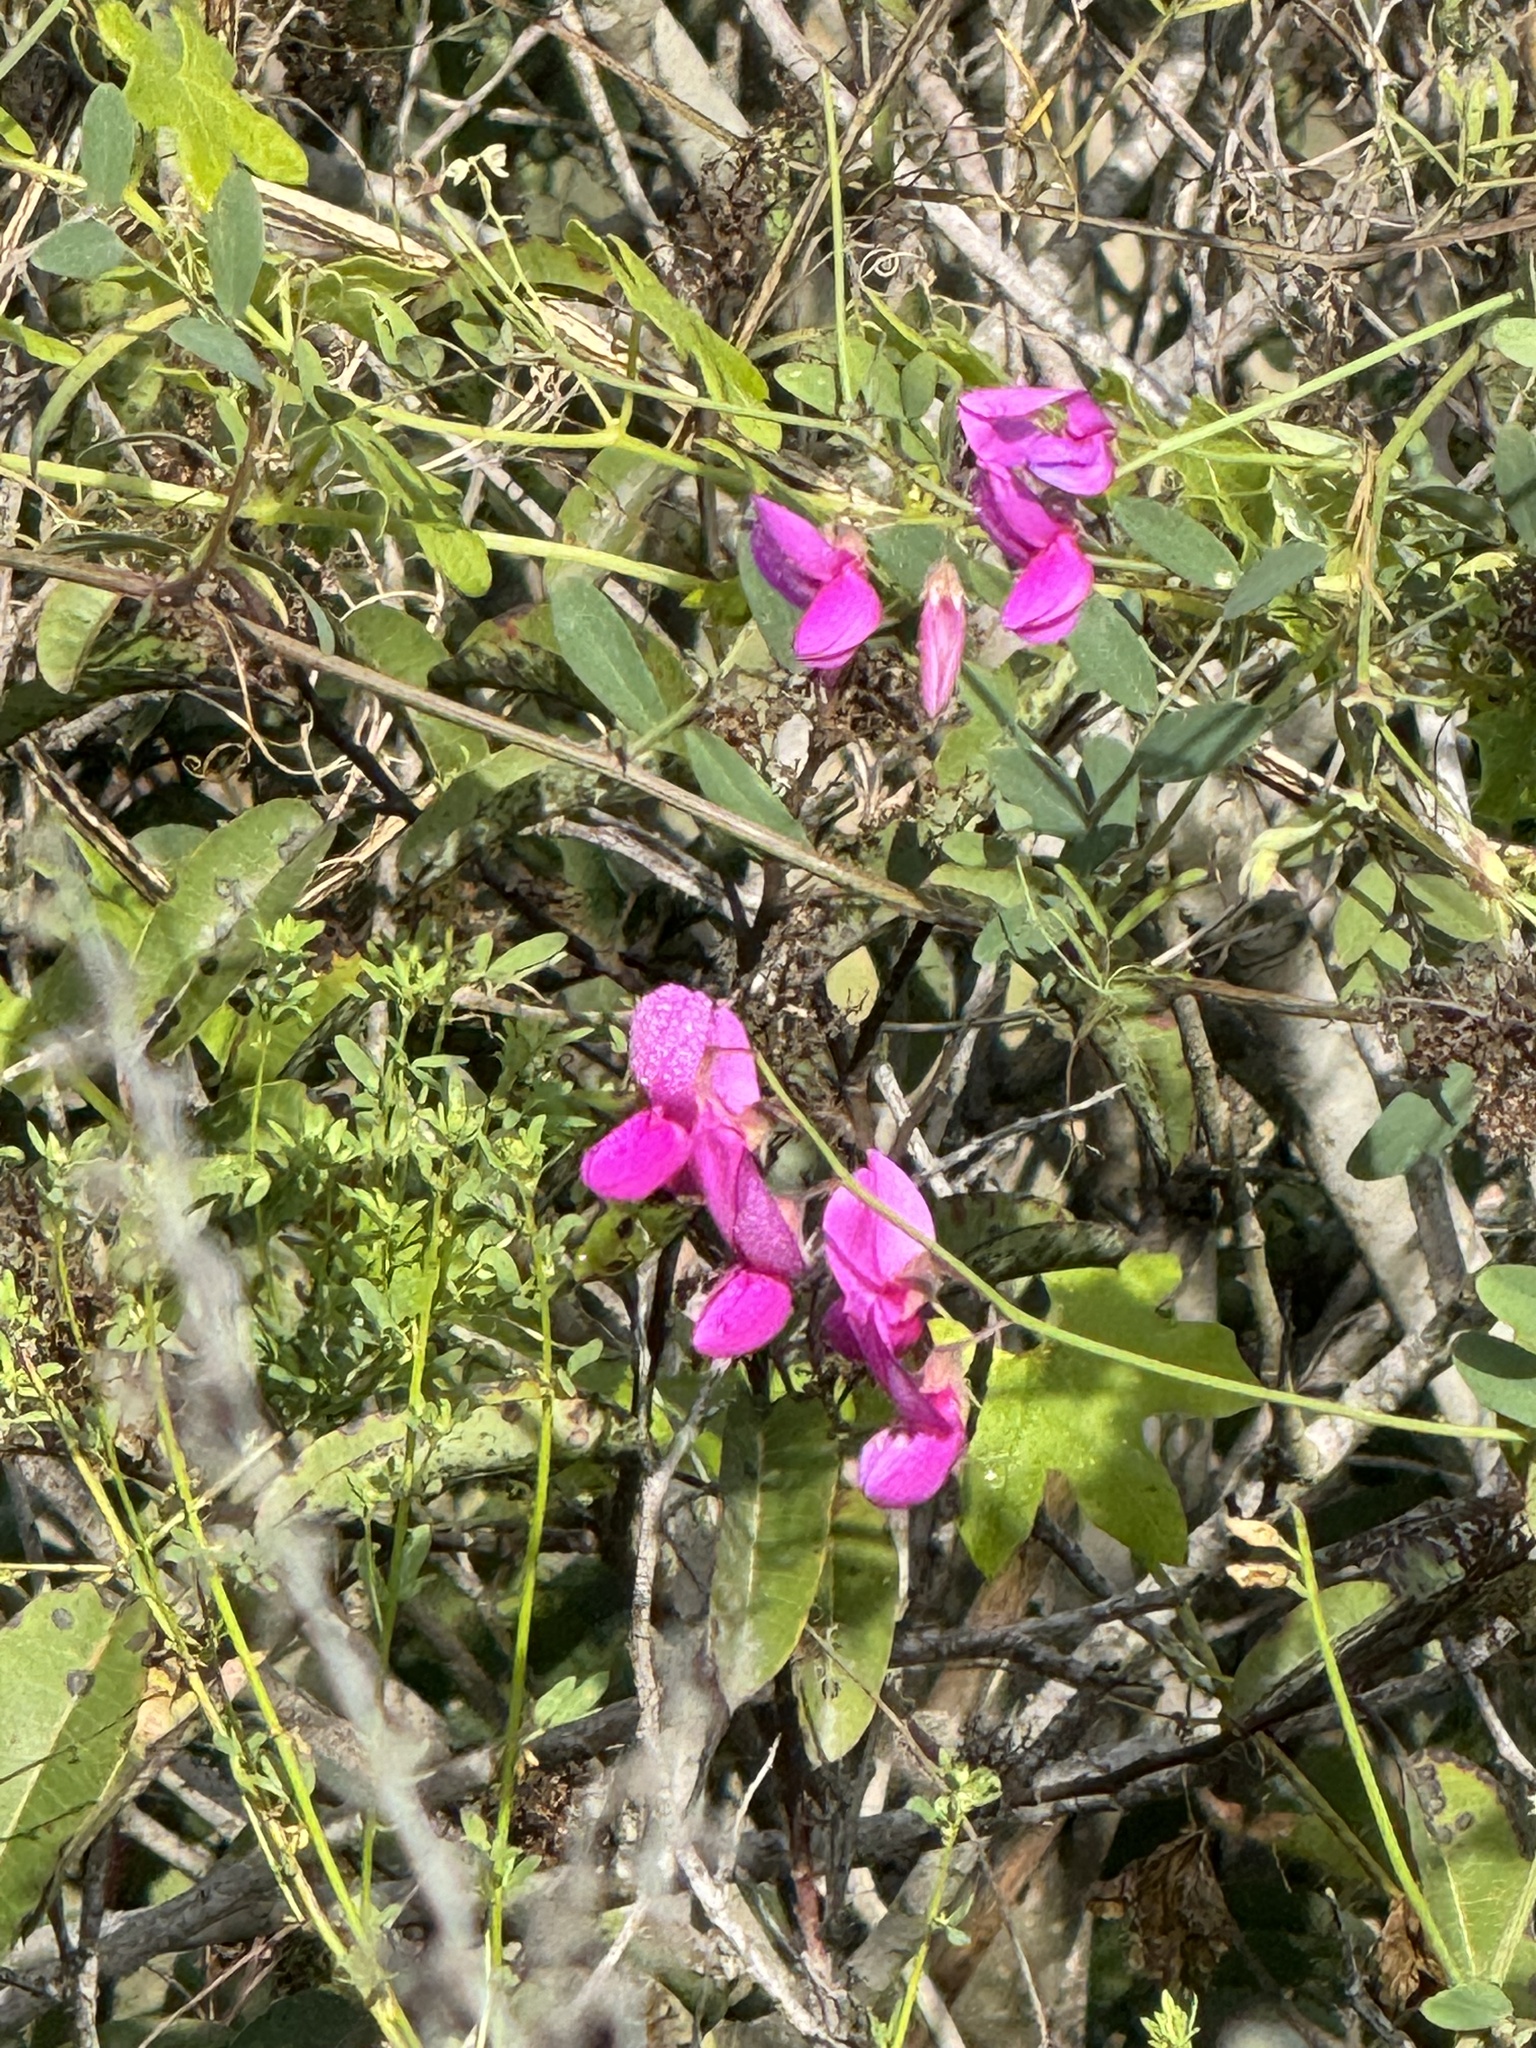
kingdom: Plantae
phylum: Tracheophyta
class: Magnoliopsida
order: Fabales
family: Fabaceae
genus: Pickeringia
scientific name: Pickeringia montana
